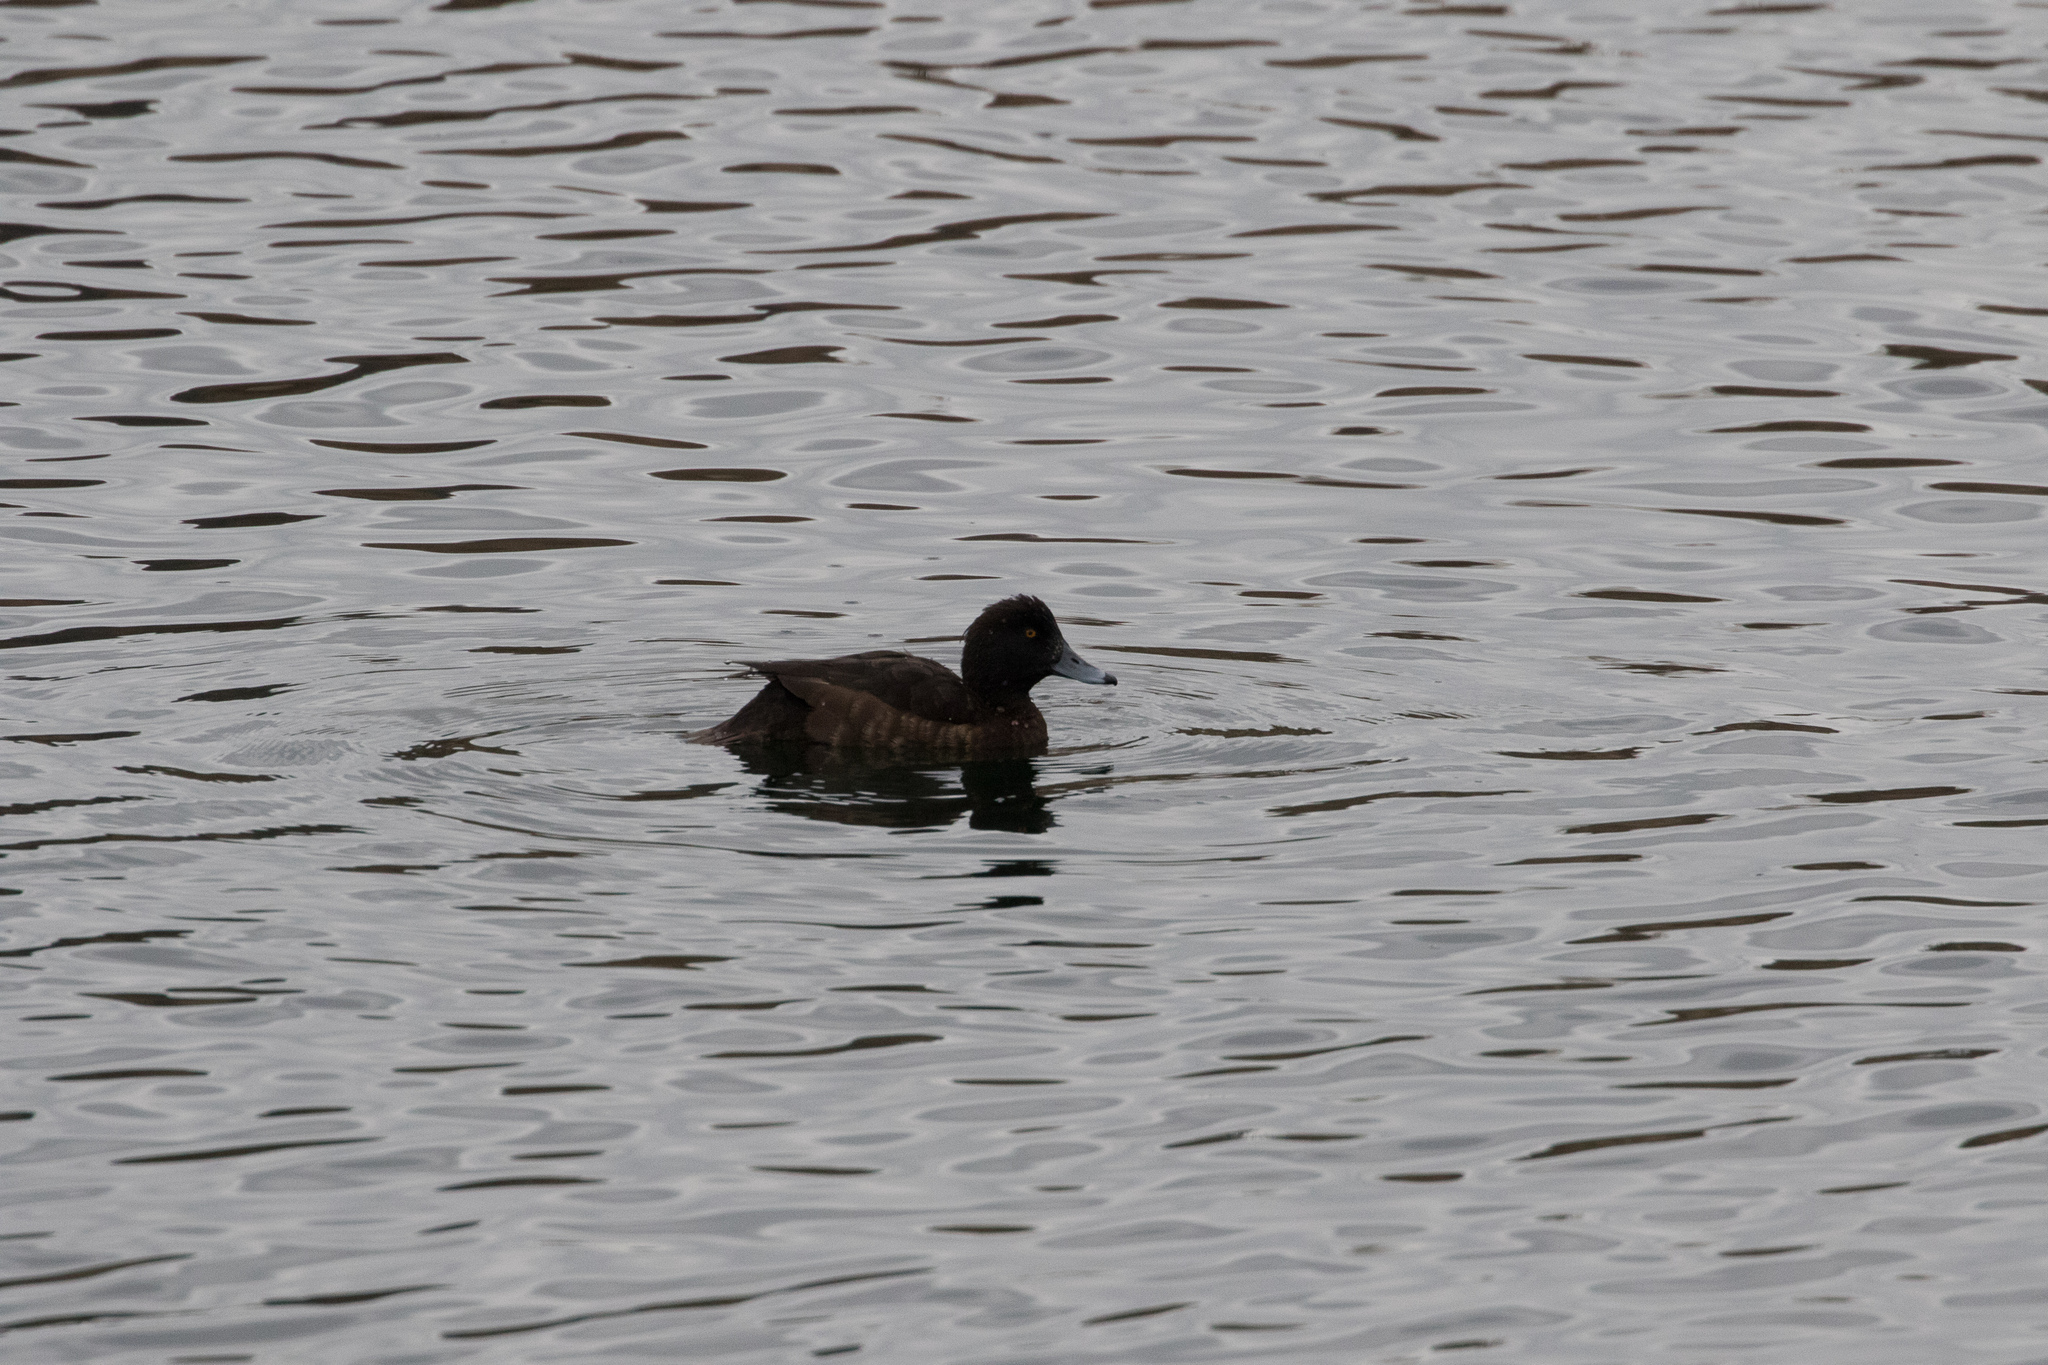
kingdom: Animalia
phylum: Chordata
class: Aves
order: Anseriformes
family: Anatidae
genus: Aythya
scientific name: Aythya fuligula
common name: Tufted duck
